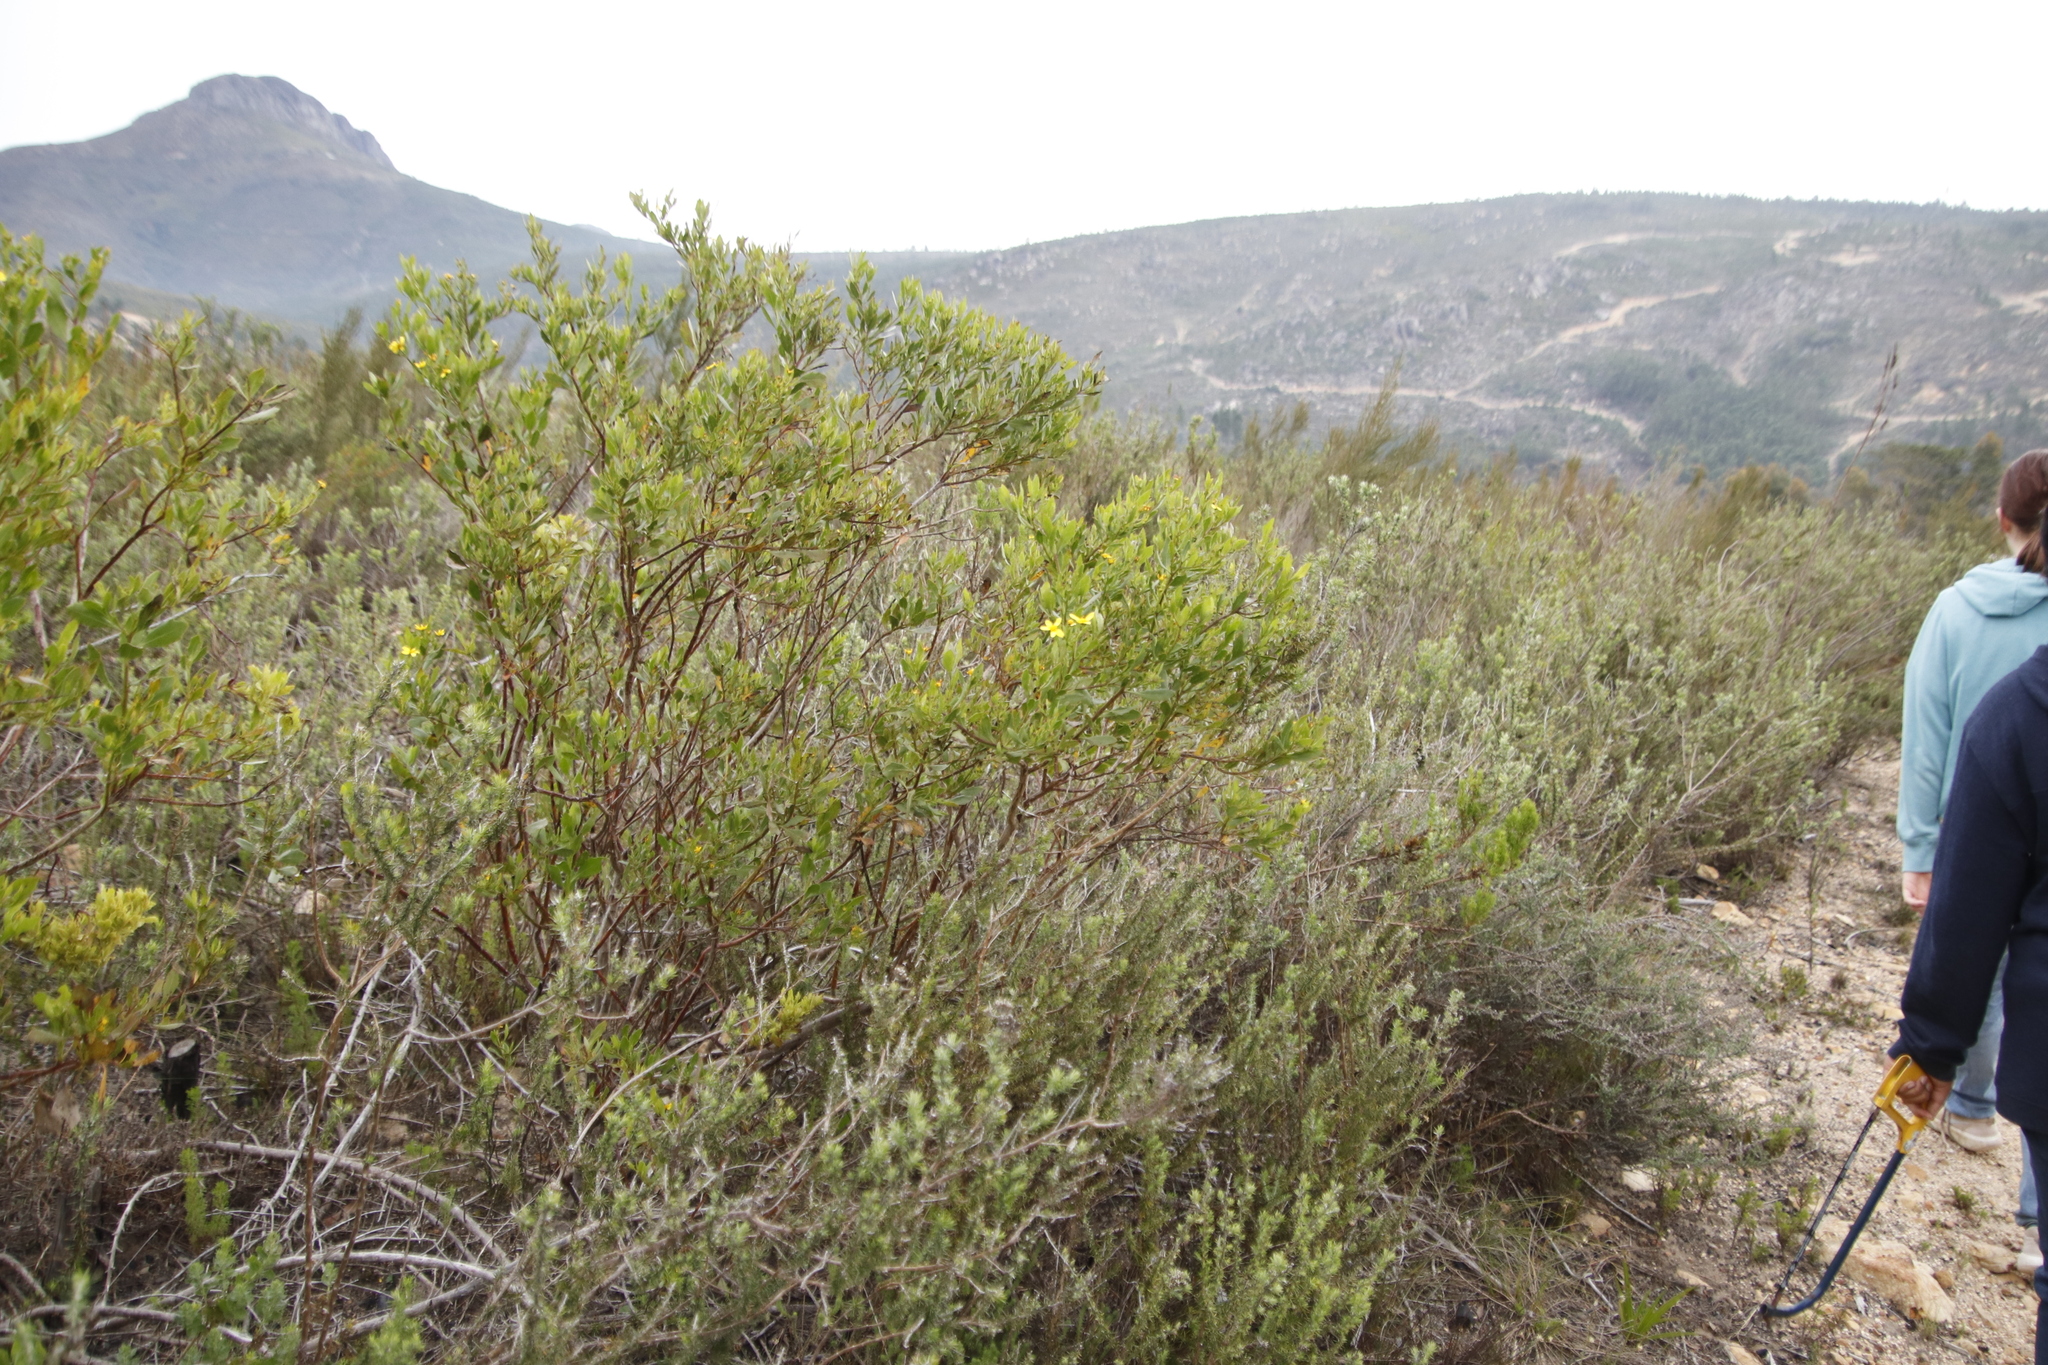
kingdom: Plantae
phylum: Tracheophyta
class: Magnoliopsida
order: Asterales
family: Asteraceae
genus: Osteospermum
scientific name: Osteospermum moniliferum
